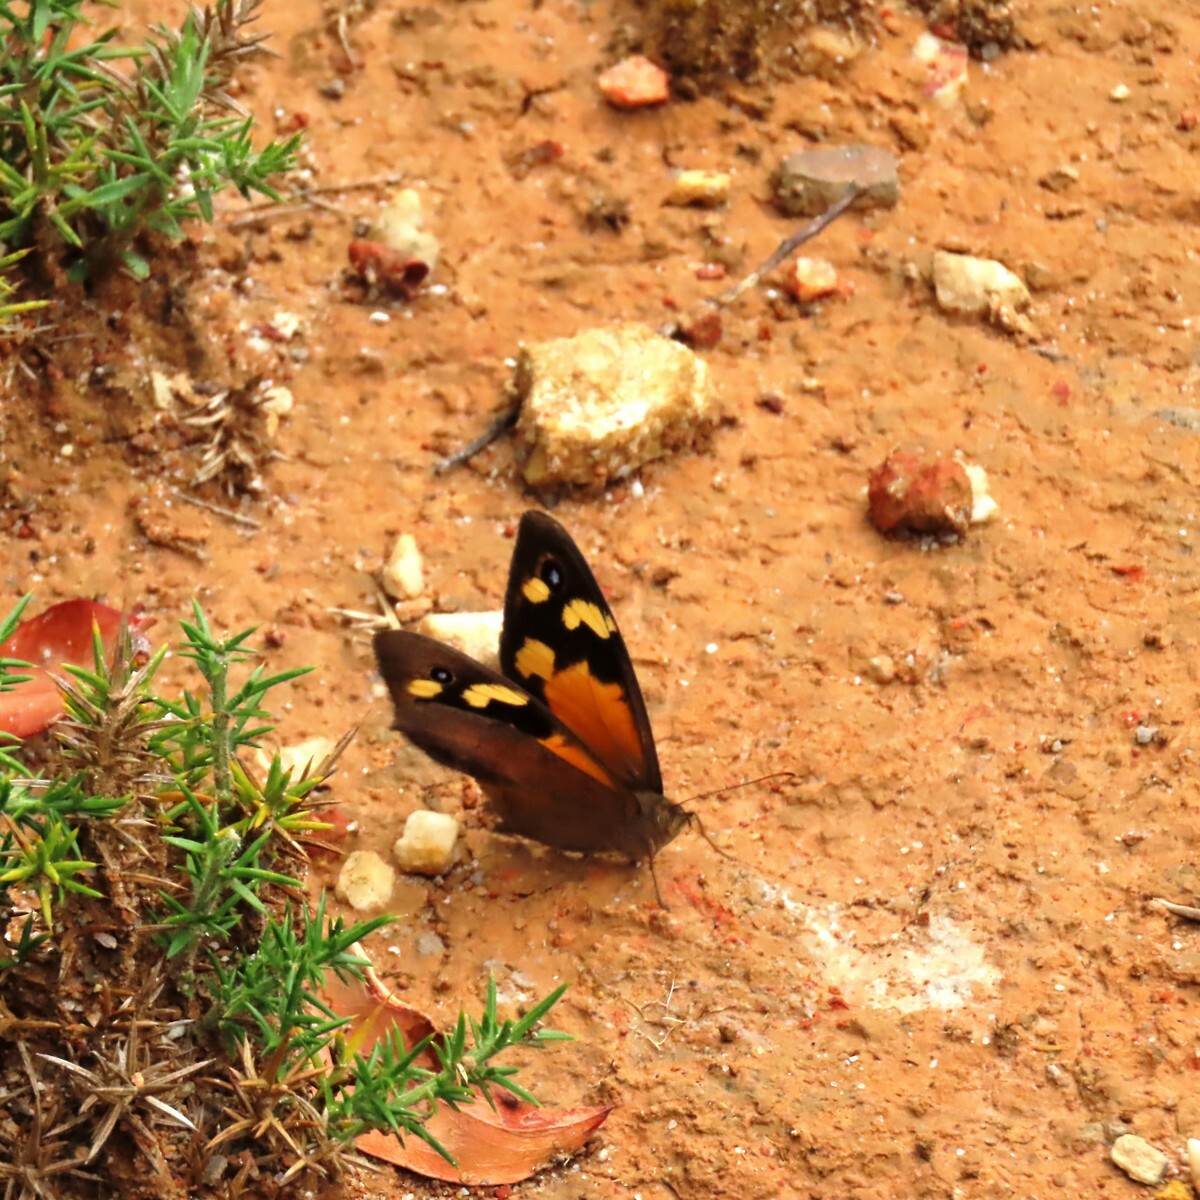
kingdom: Animalia
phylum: Arthropoda
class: Insecta
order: Lepidoptera
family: Nymphalidae
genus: Heteronympha
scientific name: Heteronympha merope
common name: Common brown
